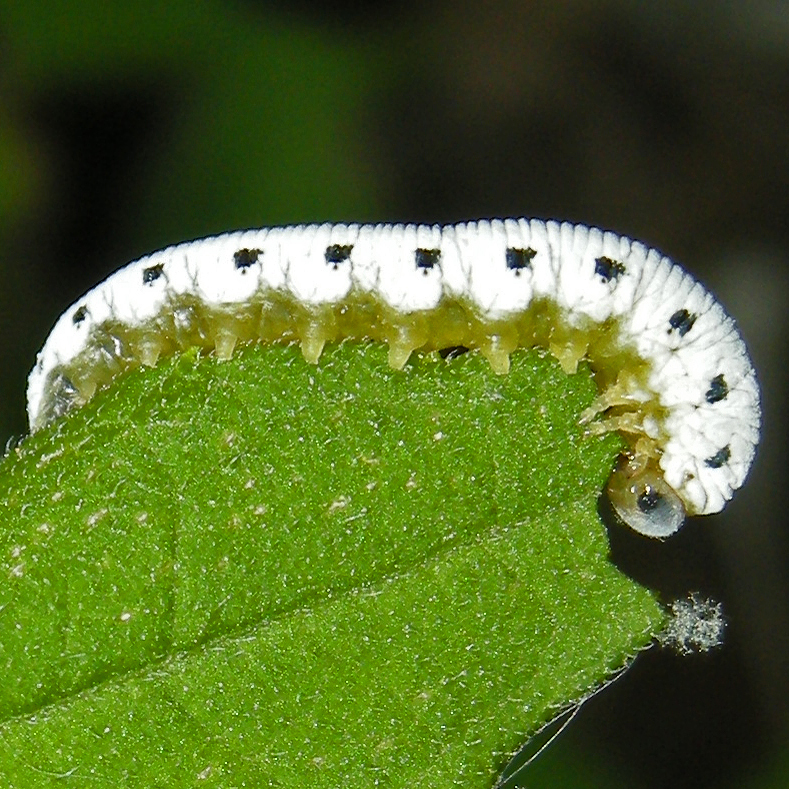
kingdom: Animalia
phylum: Arthropoda
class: Insecta
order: Hymenoptera
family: Tenthredinidae
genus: Macrophya
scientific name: Macrophya
